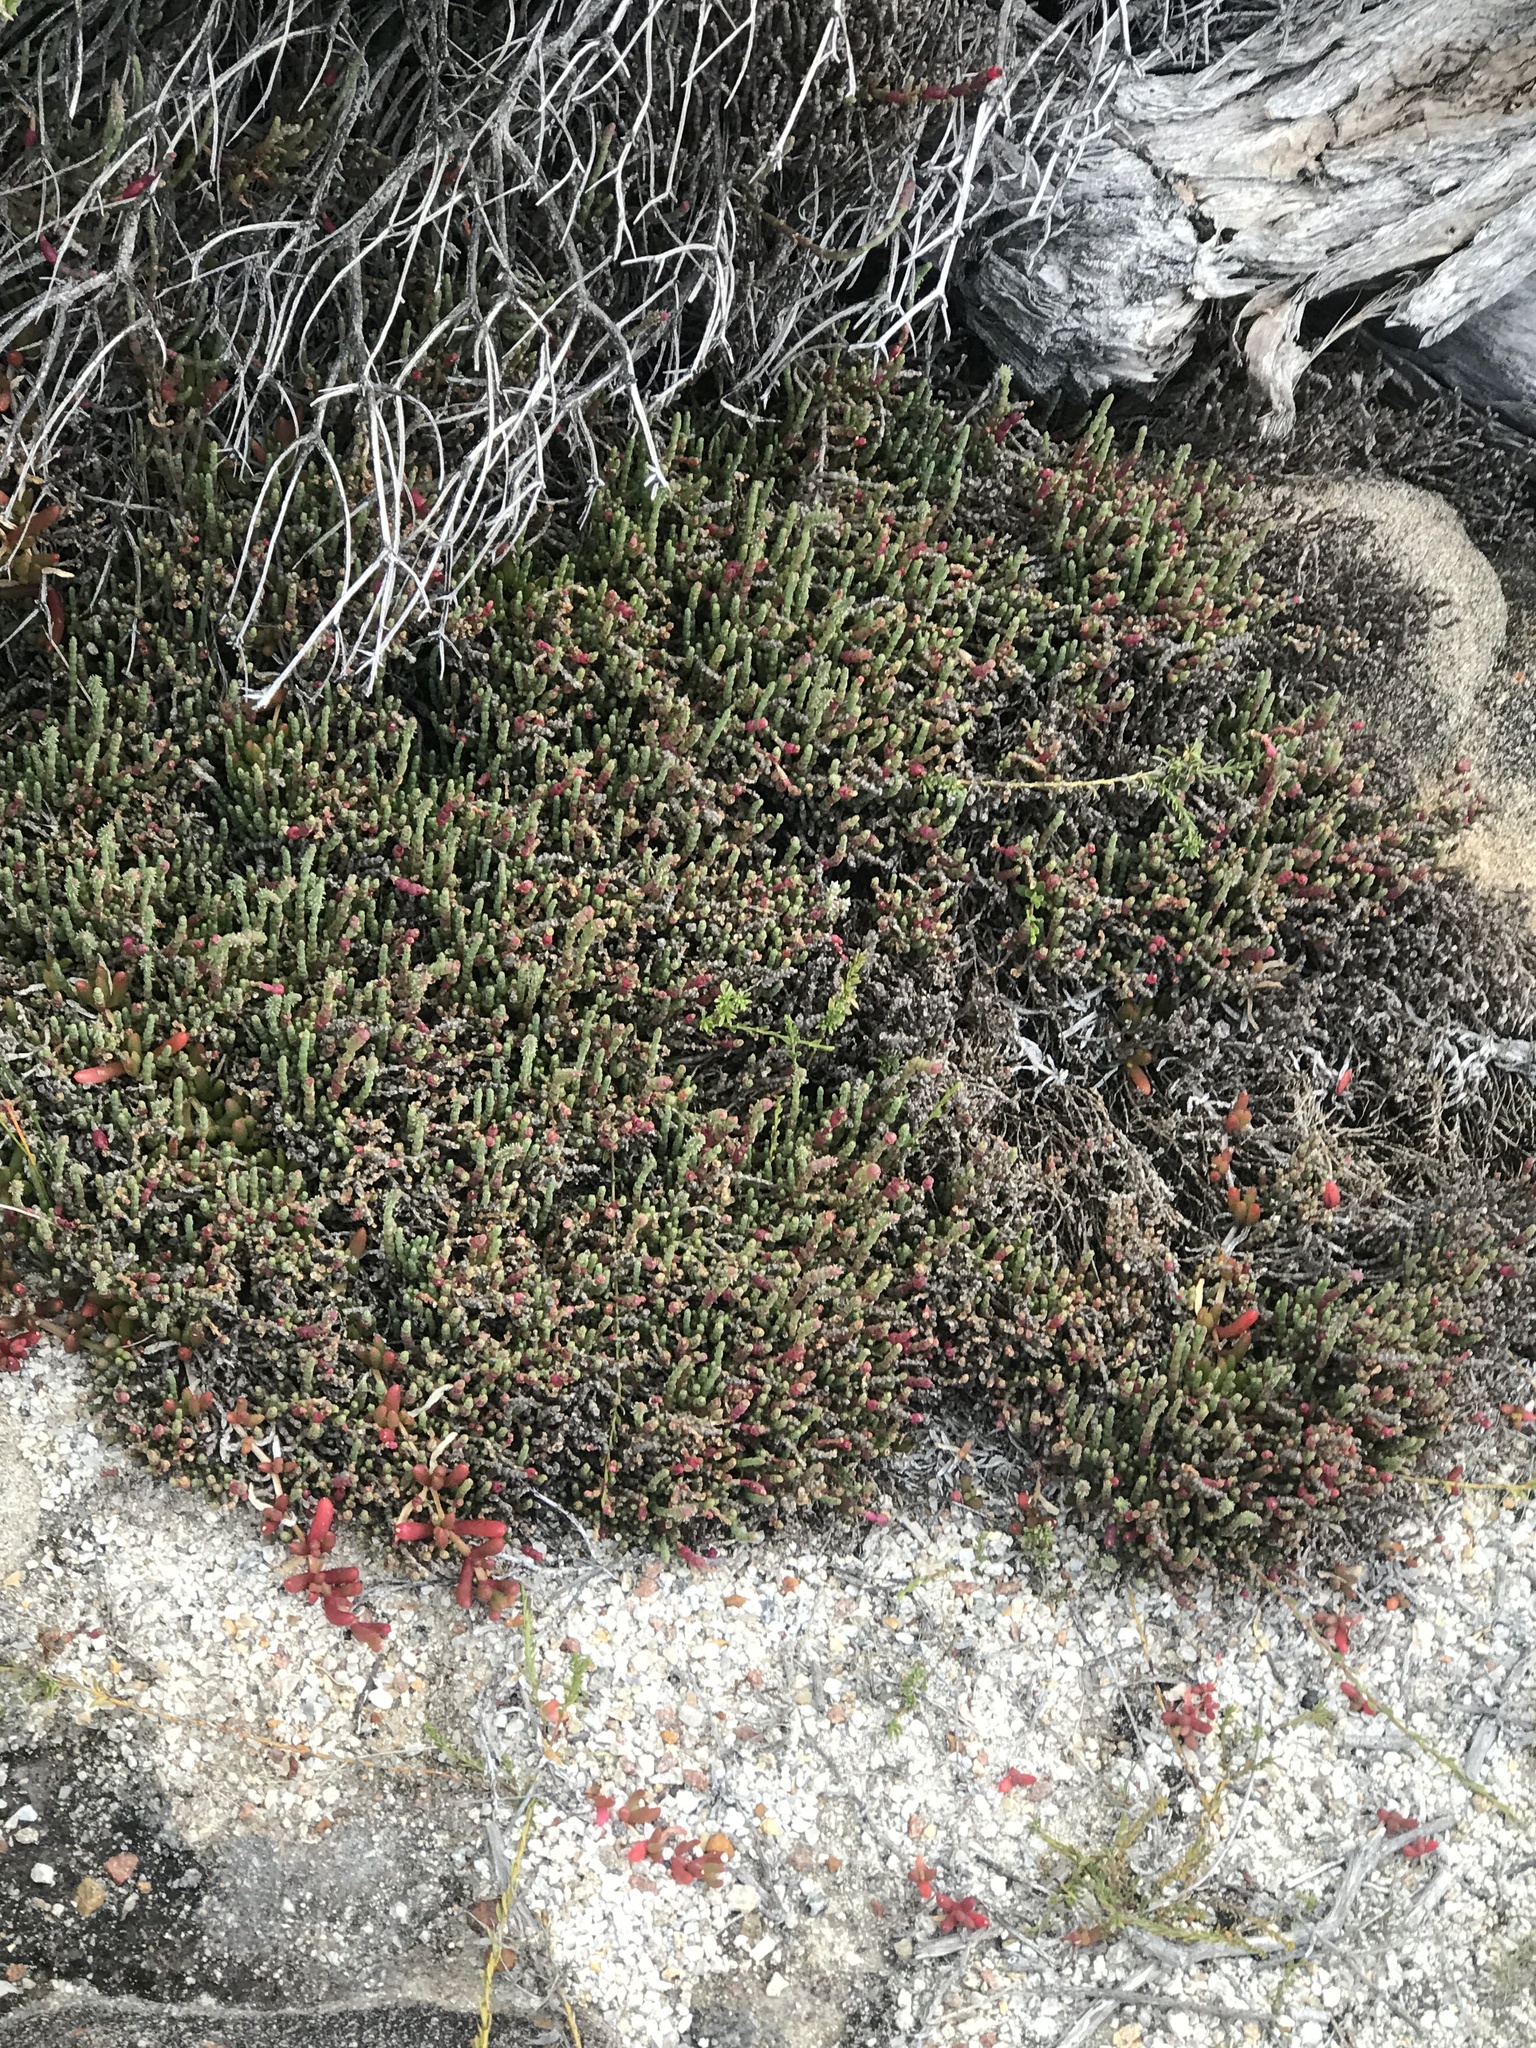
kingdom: Plantae
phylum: Tracheophyta
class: Magnoliopsida
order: Caryophyllales
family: Amaranthaceae
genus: Salicornia
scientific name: Salicornia quinqueflora
